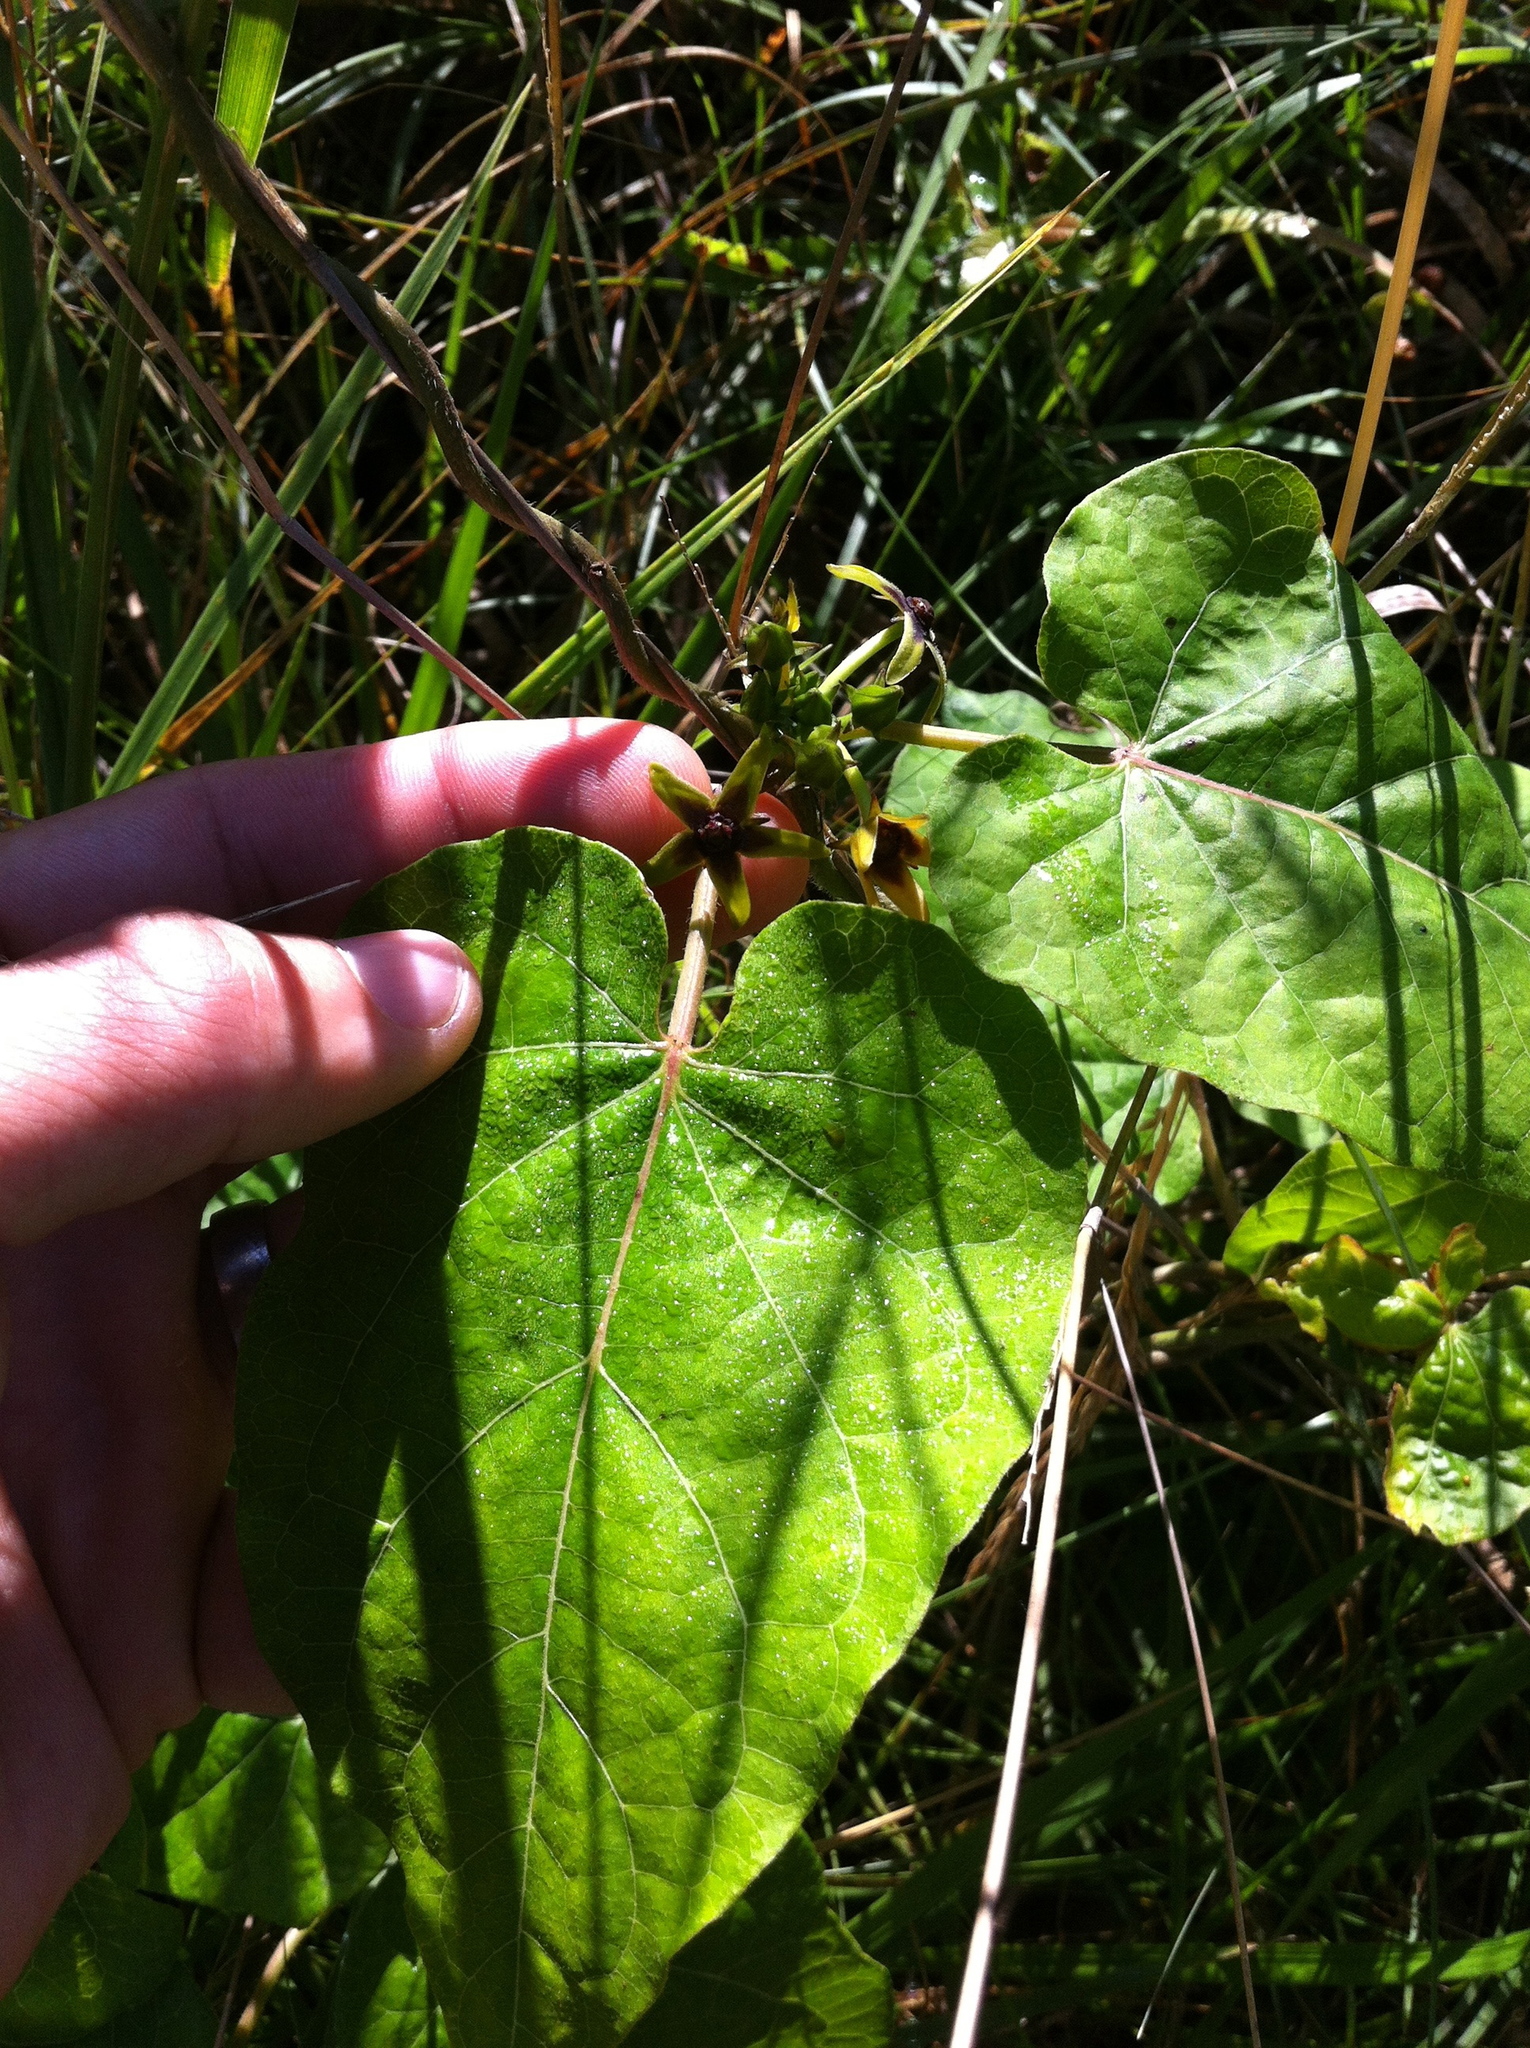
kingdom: Plantae
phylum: Tracheophyta
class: Magnoliopsida
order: Gentianales
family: Apocynaceae
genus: Matelea
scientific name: Matelea carolinensis
